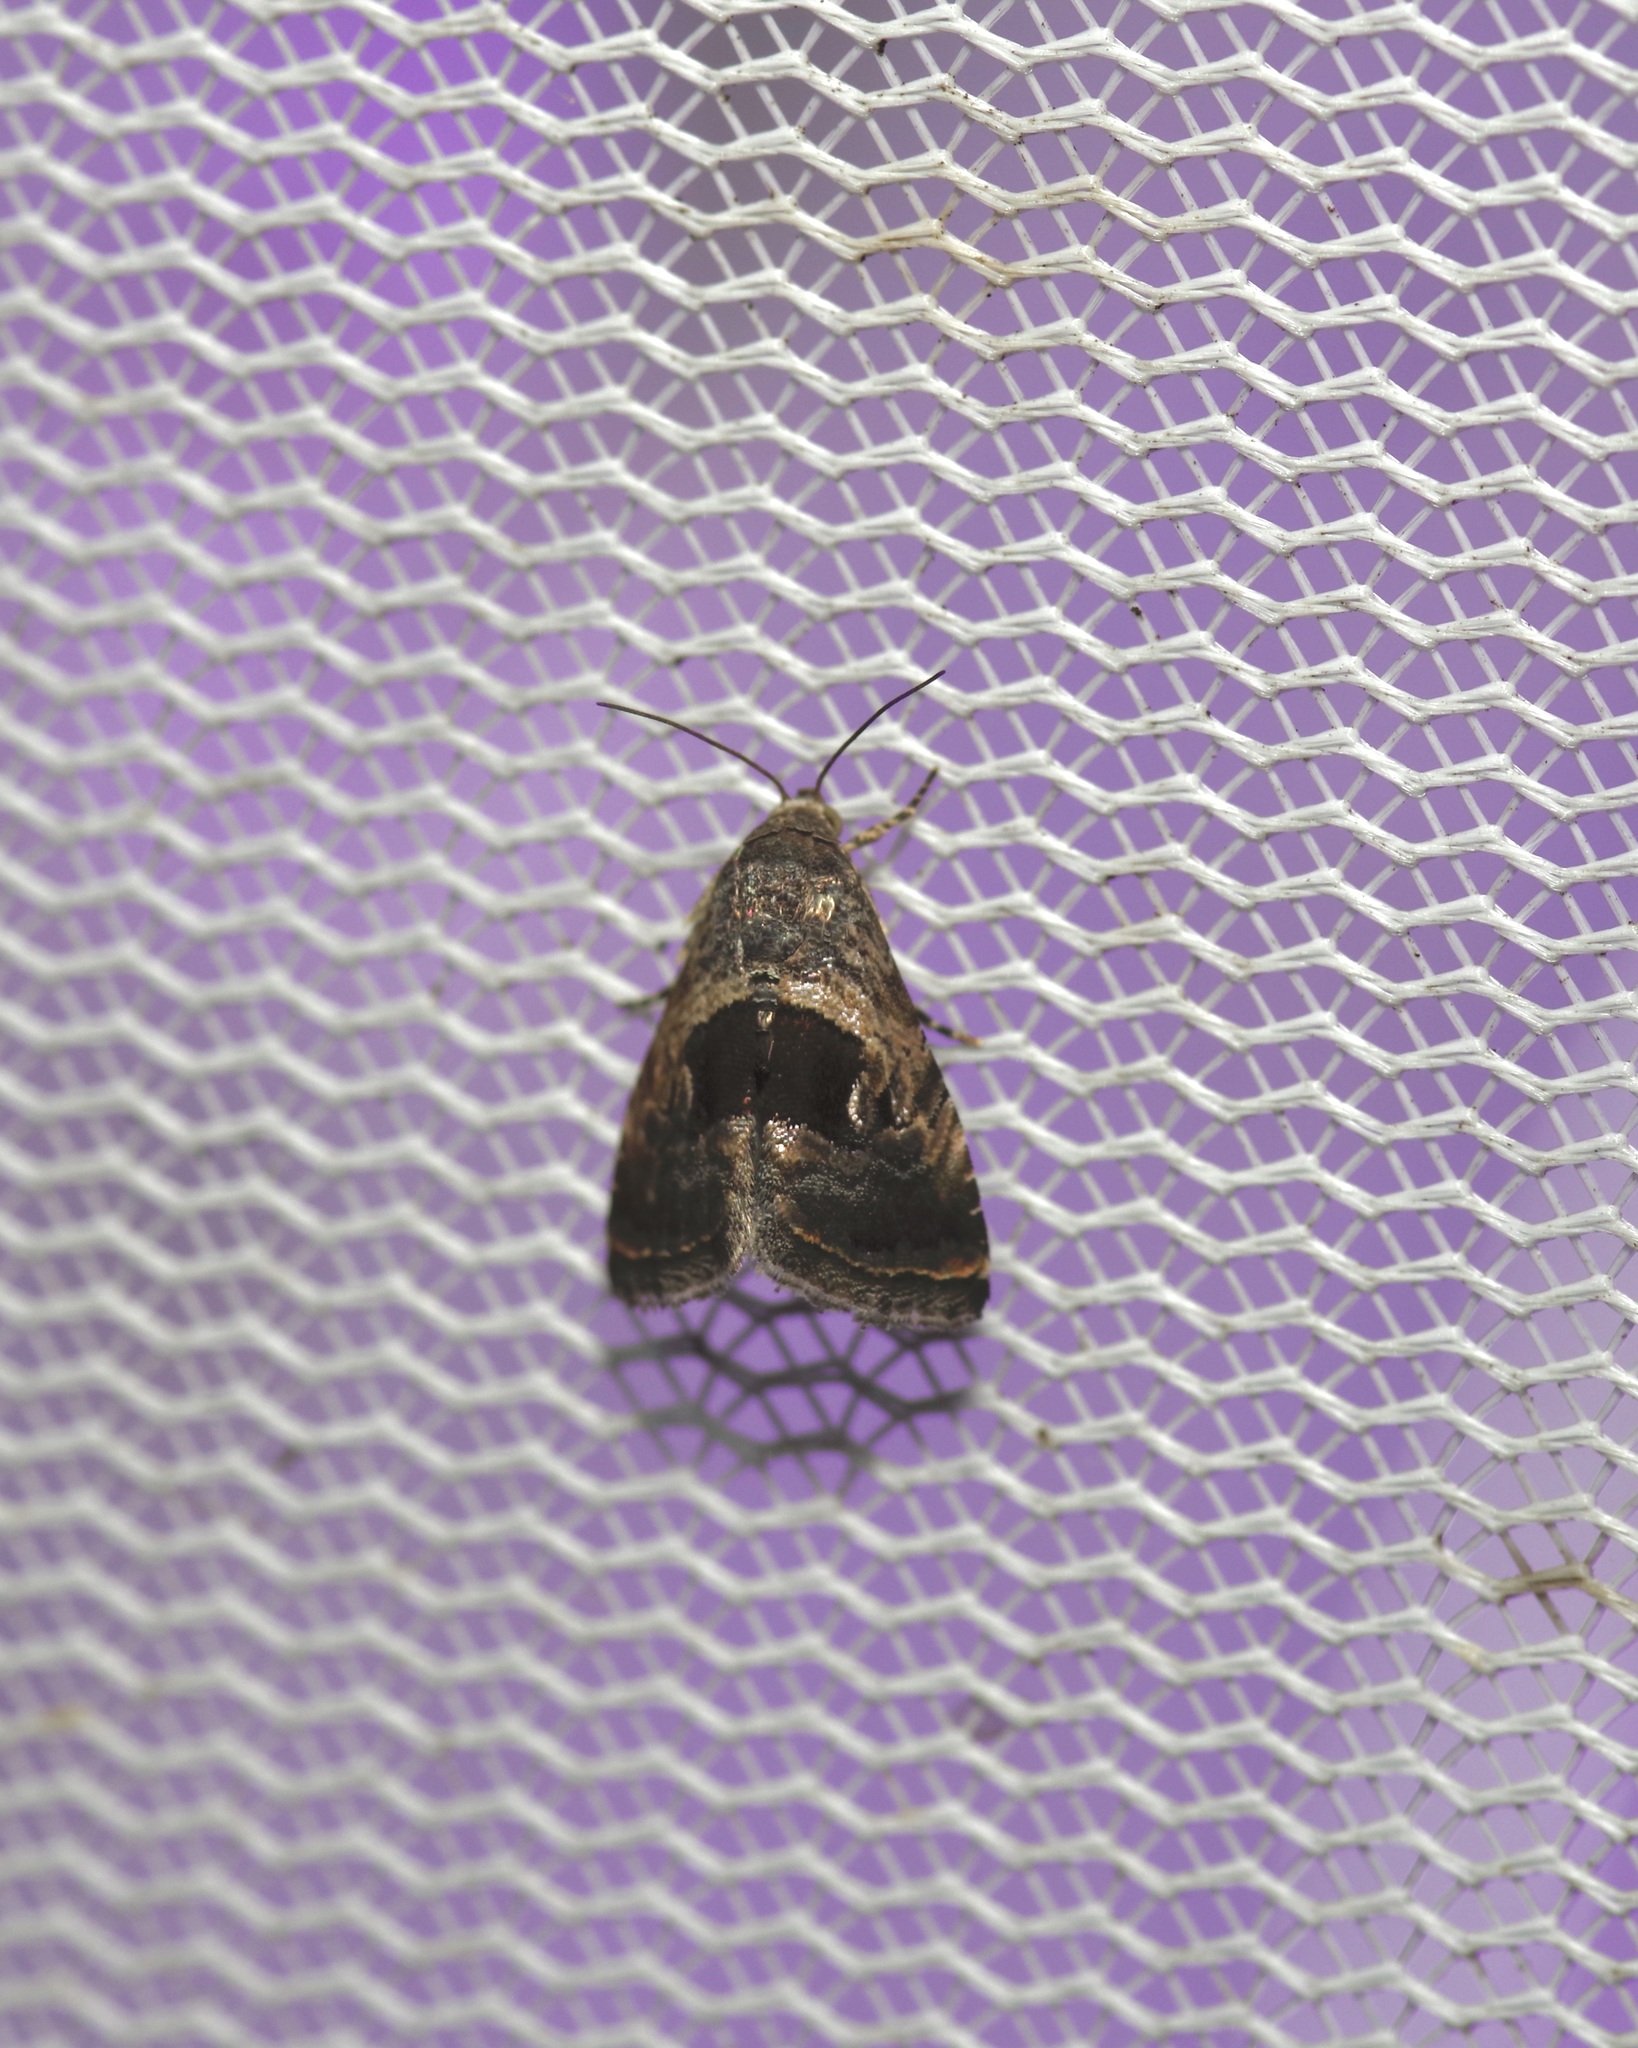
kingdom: Animalia
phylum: Arthropoda
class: Insecta
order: Lepidoptera
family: Noctuidae
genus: Tripudia
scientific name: Tripudia quadrifera
